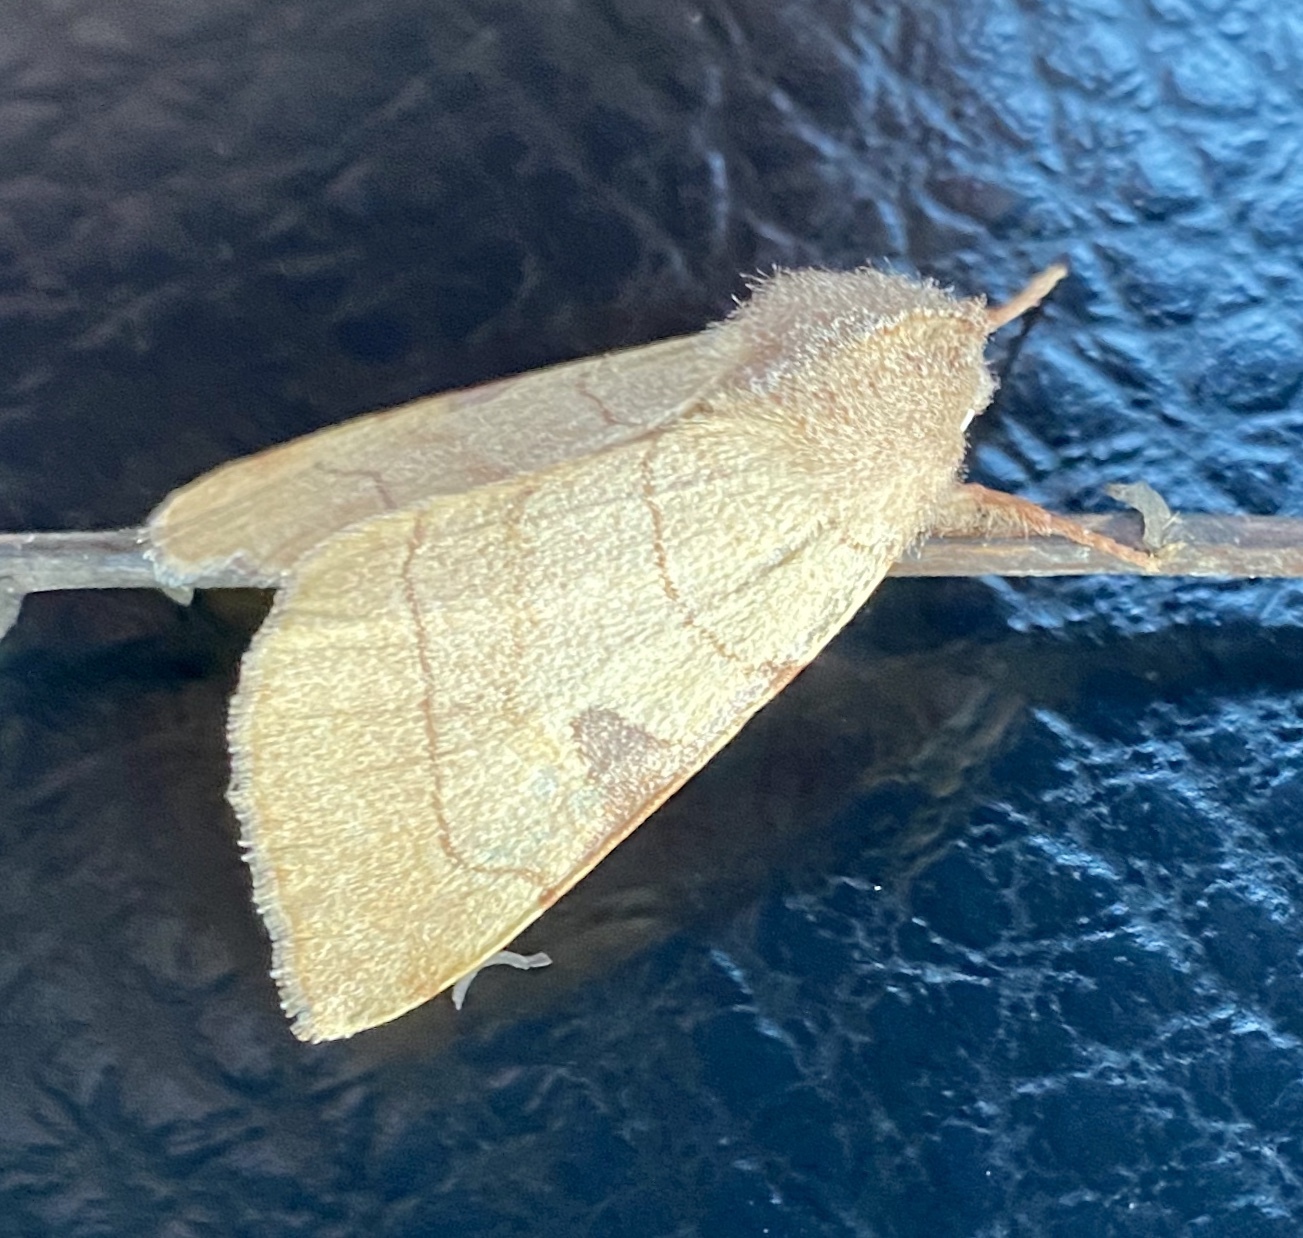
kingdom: Animalia
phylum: Arthropoda
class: Insecta
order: Lepidoptera
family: Noctuidae
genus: Choephora
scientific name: Choephora fungorum
